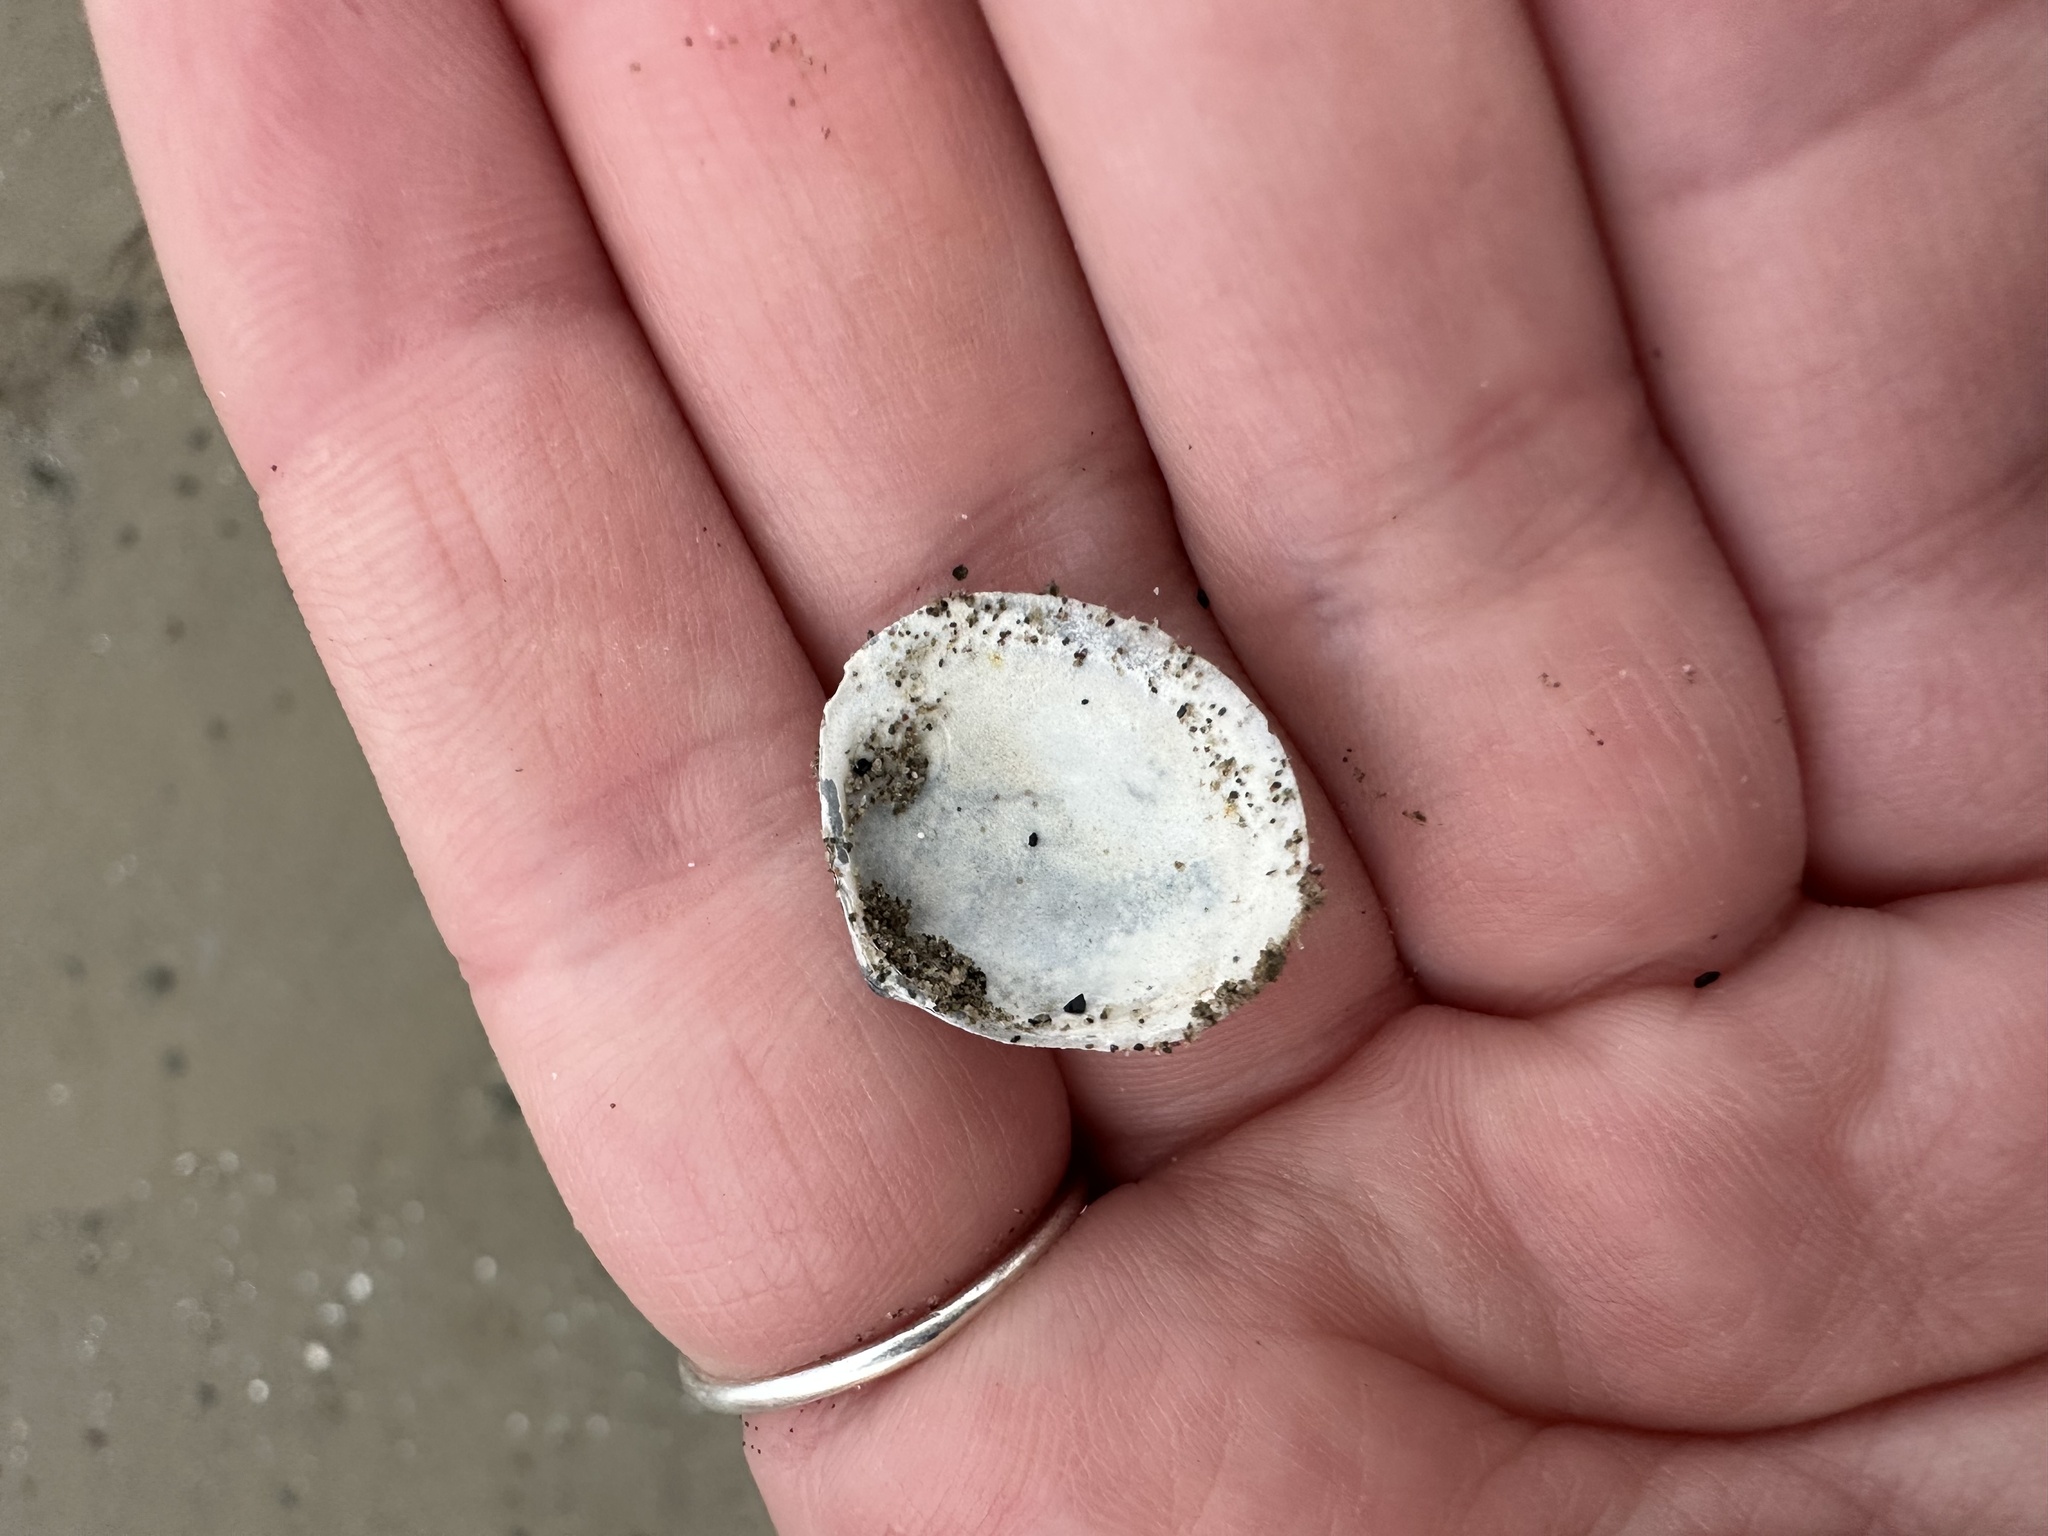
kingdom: Animalia
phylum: Mollusca
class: Bivalvia
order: Cardiida
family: Tellinidae
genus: Macoma
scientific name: Macoma petalum
